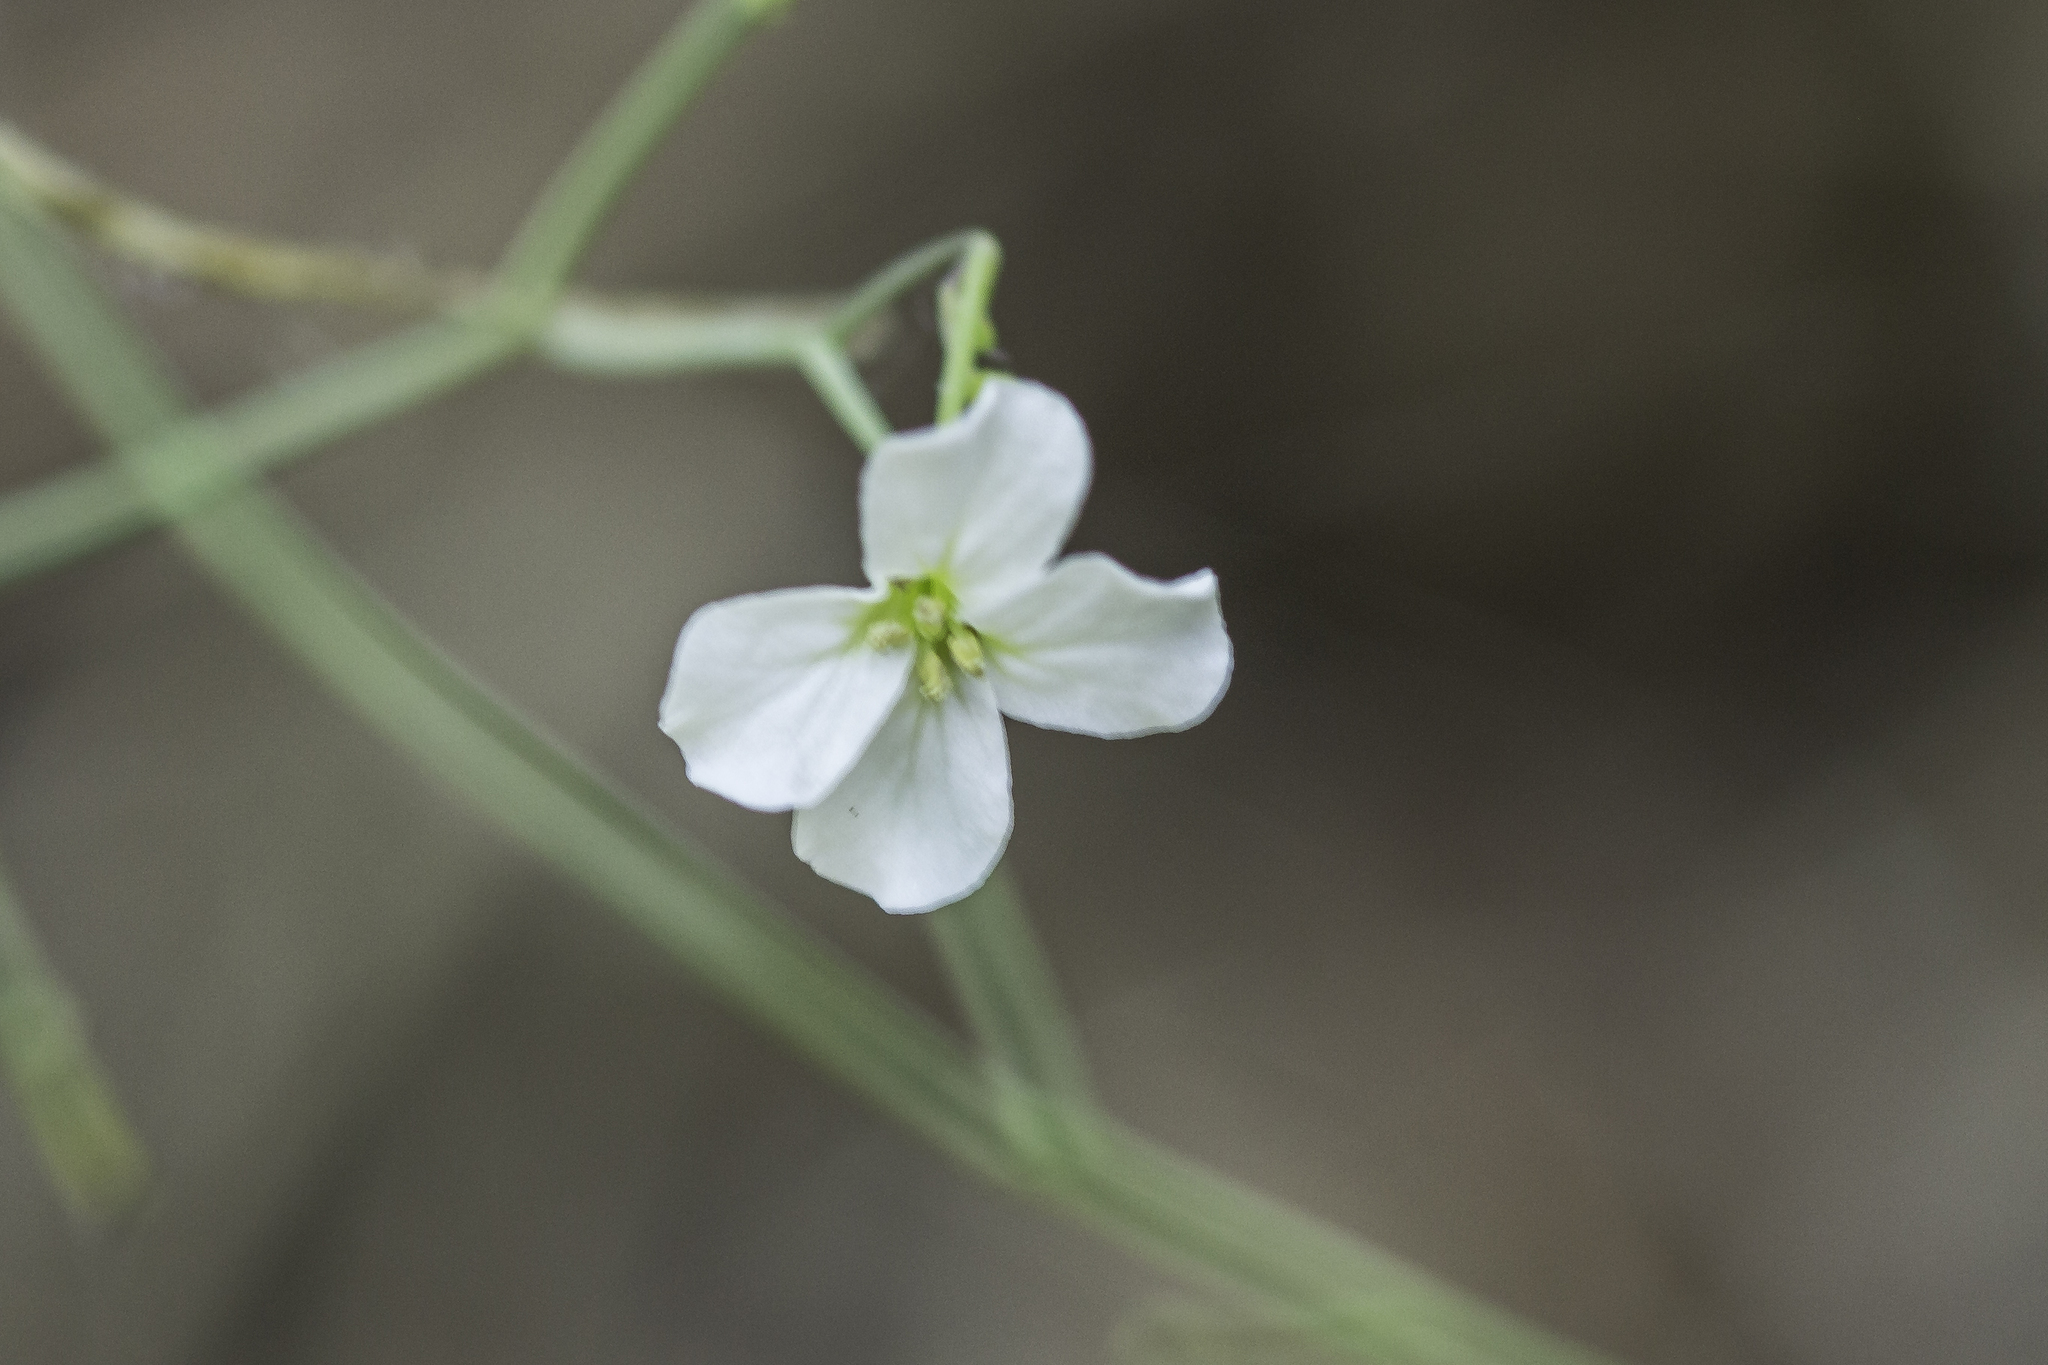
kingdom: Plantae
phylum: Tracheophyta
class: Magnoliopsida
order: Brassicales
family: Brassicaceae
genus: Arabidopsis
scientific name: Arabidopsis lyrata
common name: Lyrate rockcress
